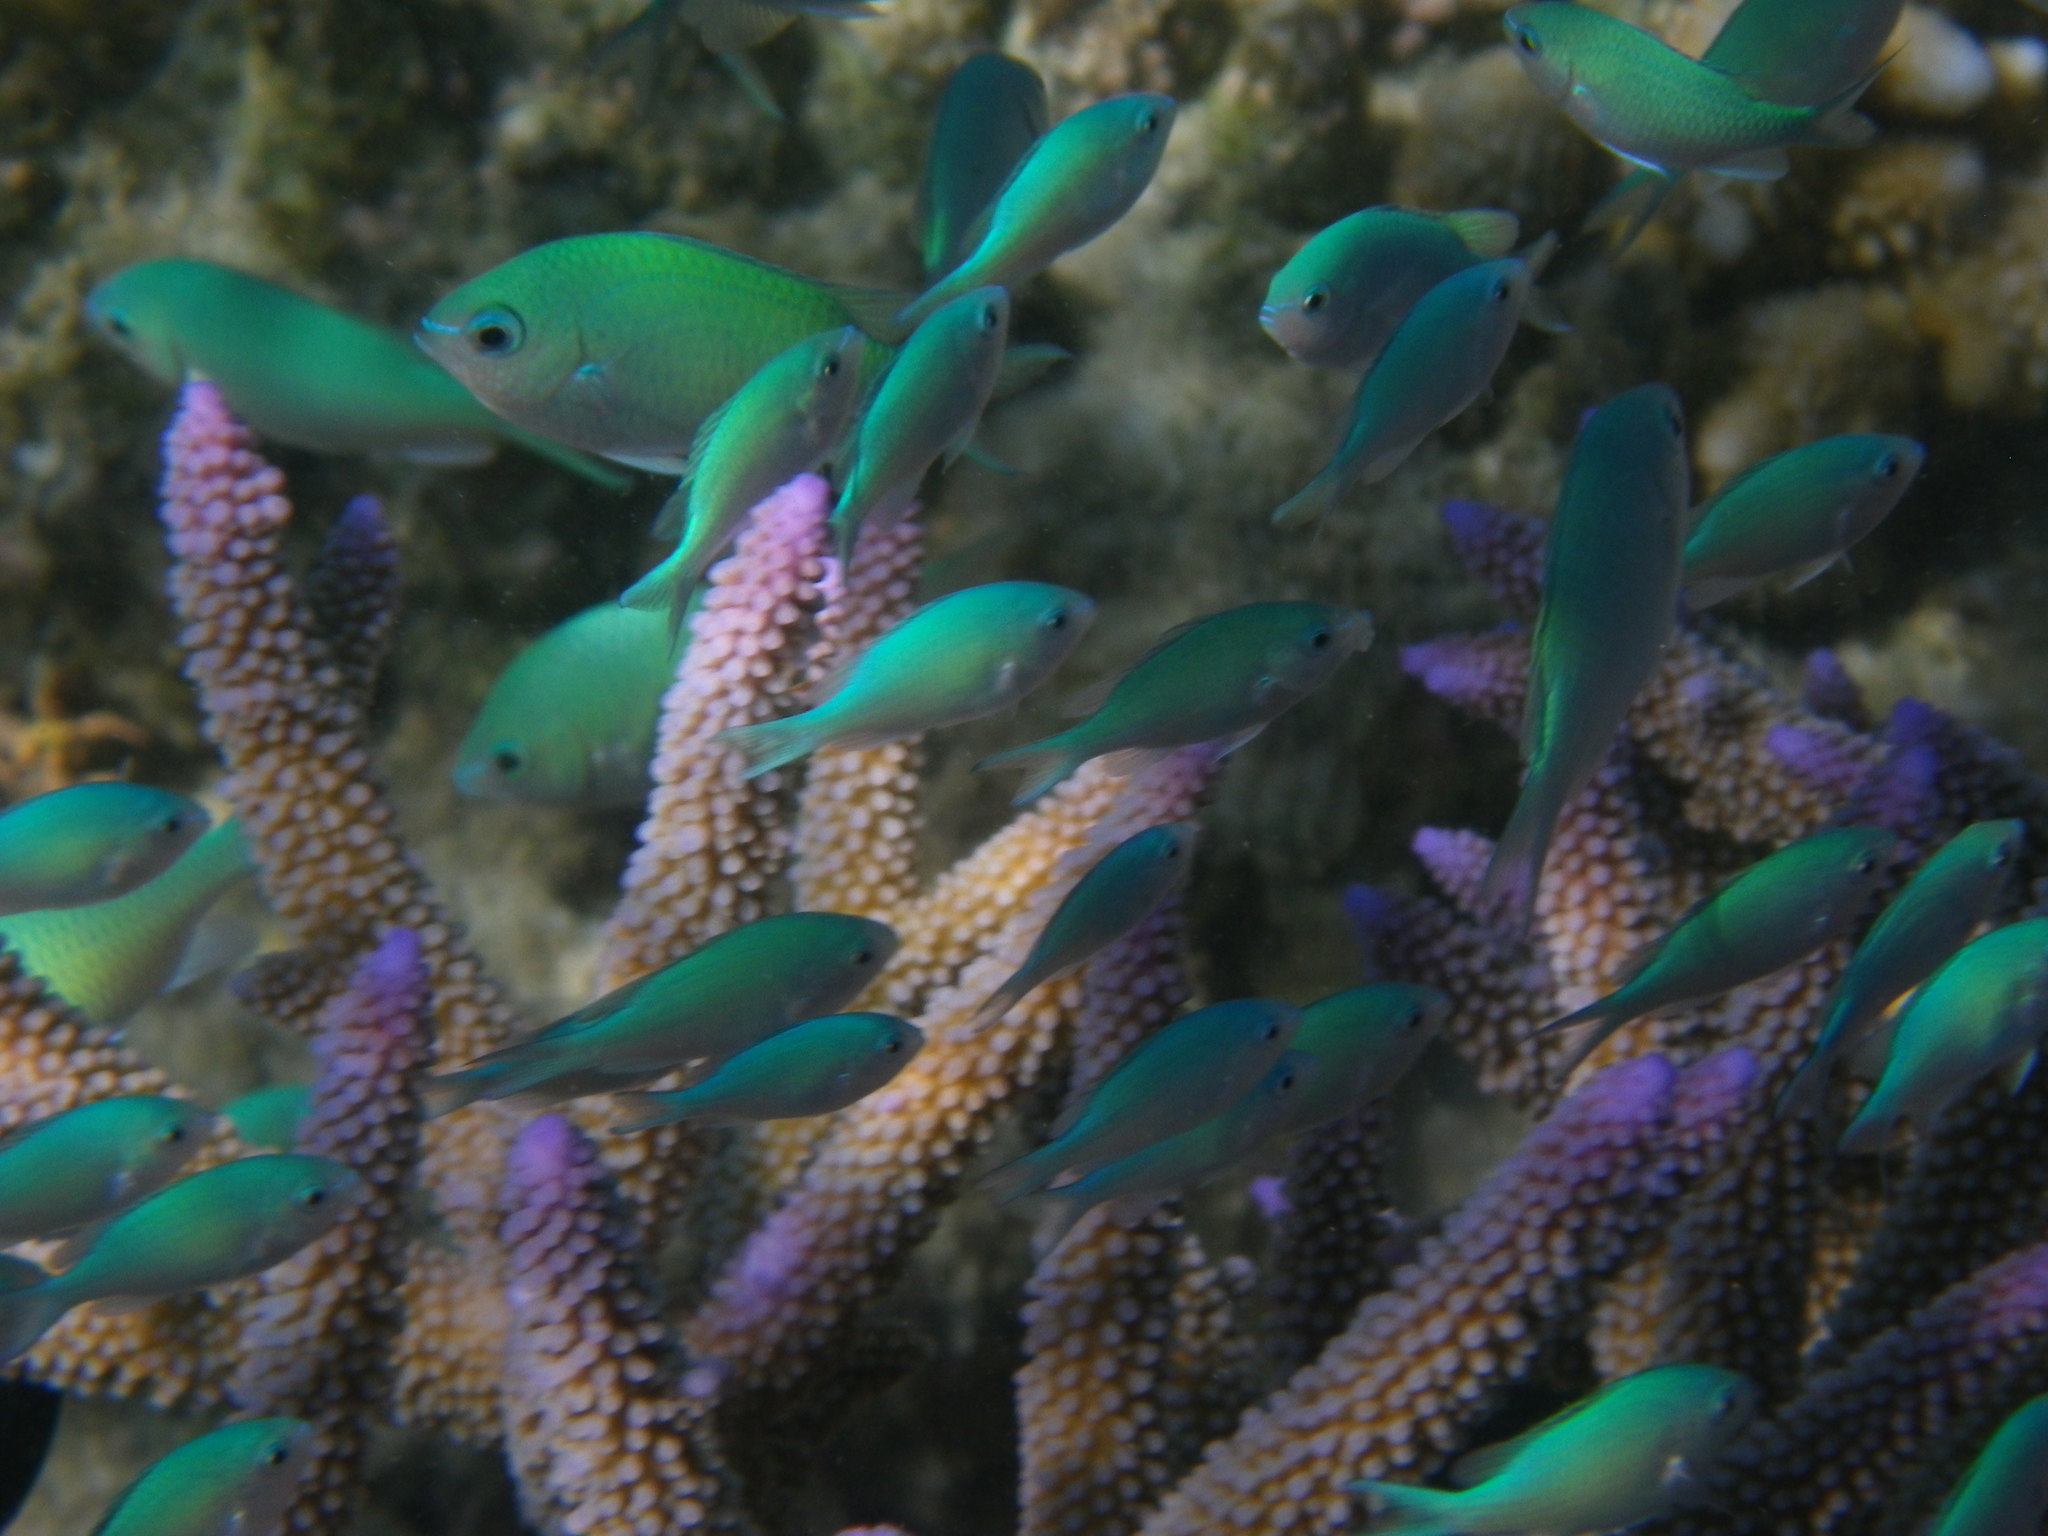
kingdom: Animalia
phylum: Chordata
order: Perciformes
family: Pomacentridae
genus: Chromis
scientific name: Chromis viridis
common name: Blue-green chromis
